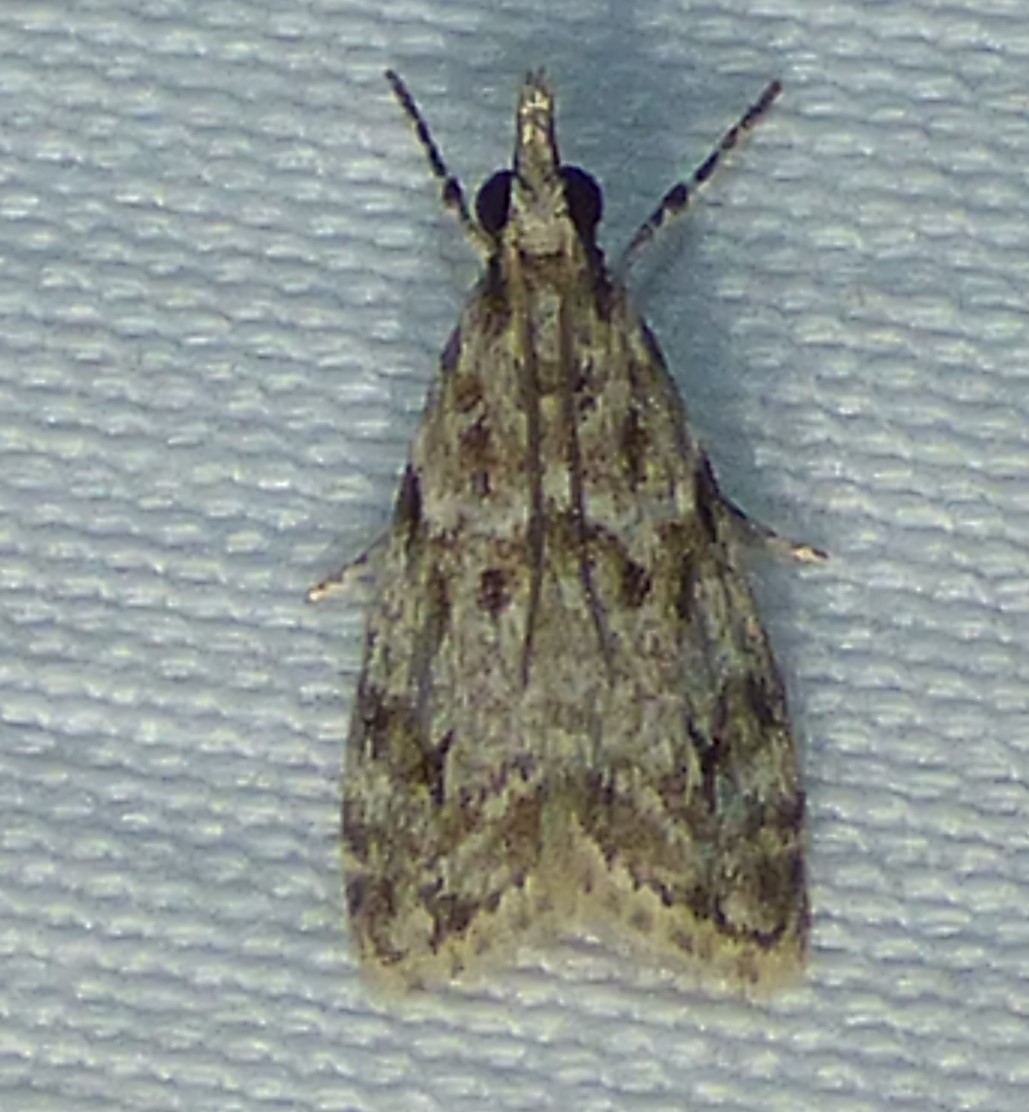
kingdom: Animalia
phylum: Arthropoda
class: Insecta
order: Lepidoptera
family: Crambidae
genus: Eudonia
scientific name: Eudonia heterosalis
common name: Mcdunnough's eudonia
